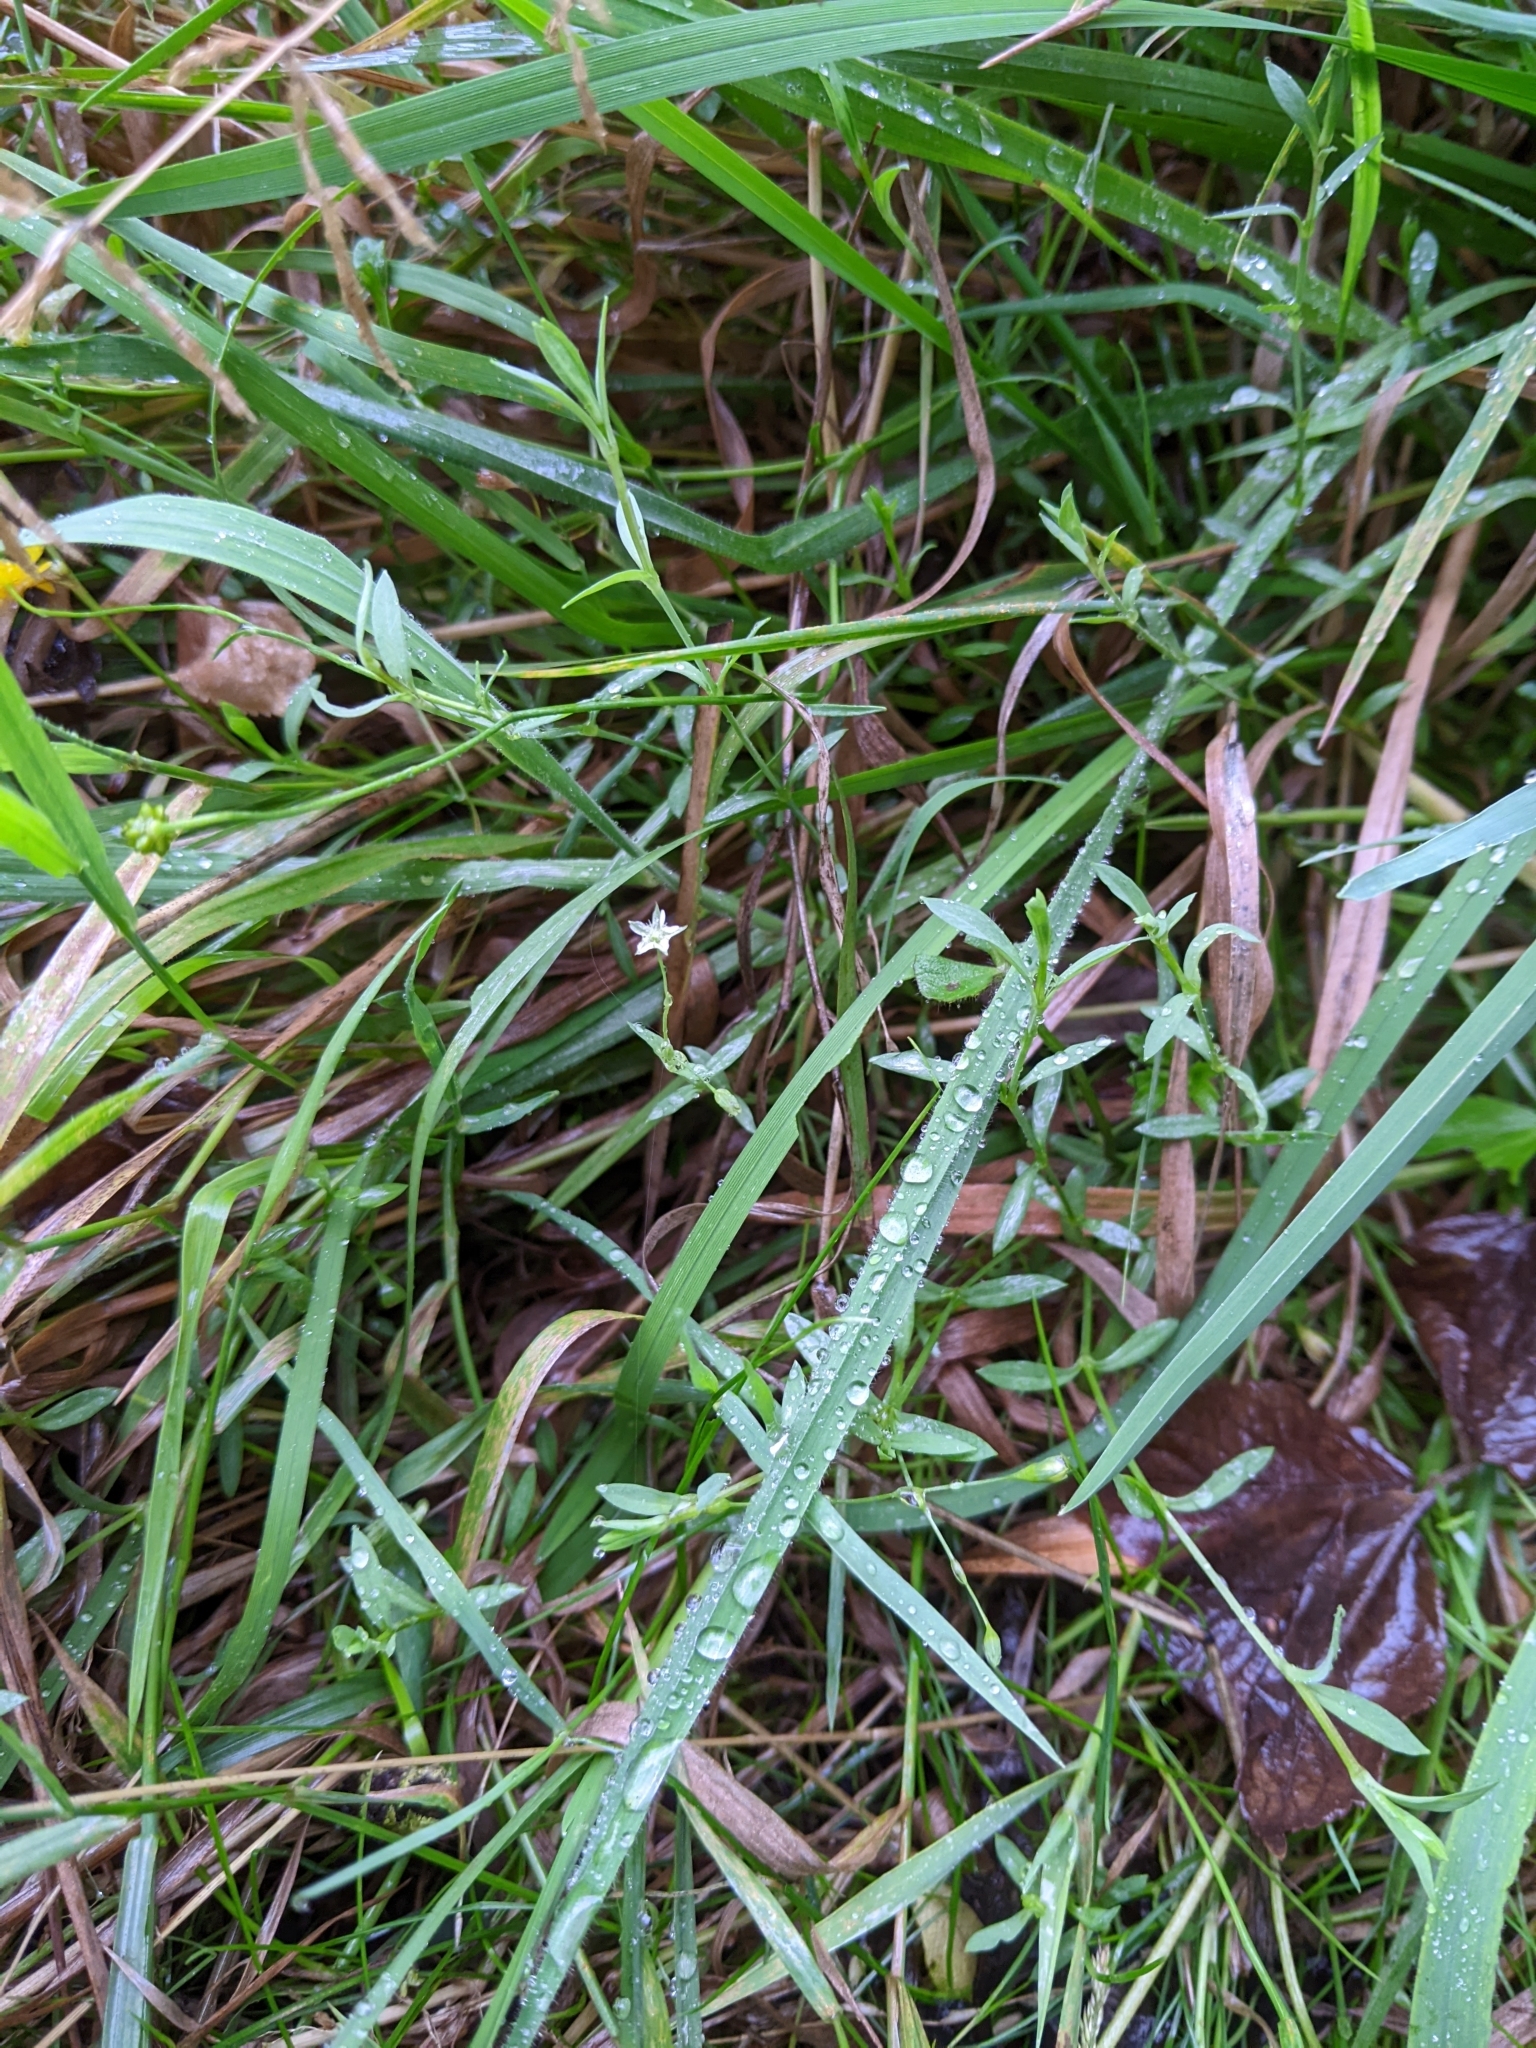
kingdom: Plantae
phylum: Tracheophyta
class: Magnoliopsida
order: Caryophyllales
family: Caryophyllaceae
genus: Stellaria
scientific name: Stellaria alsine
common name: Bog stitchwort
